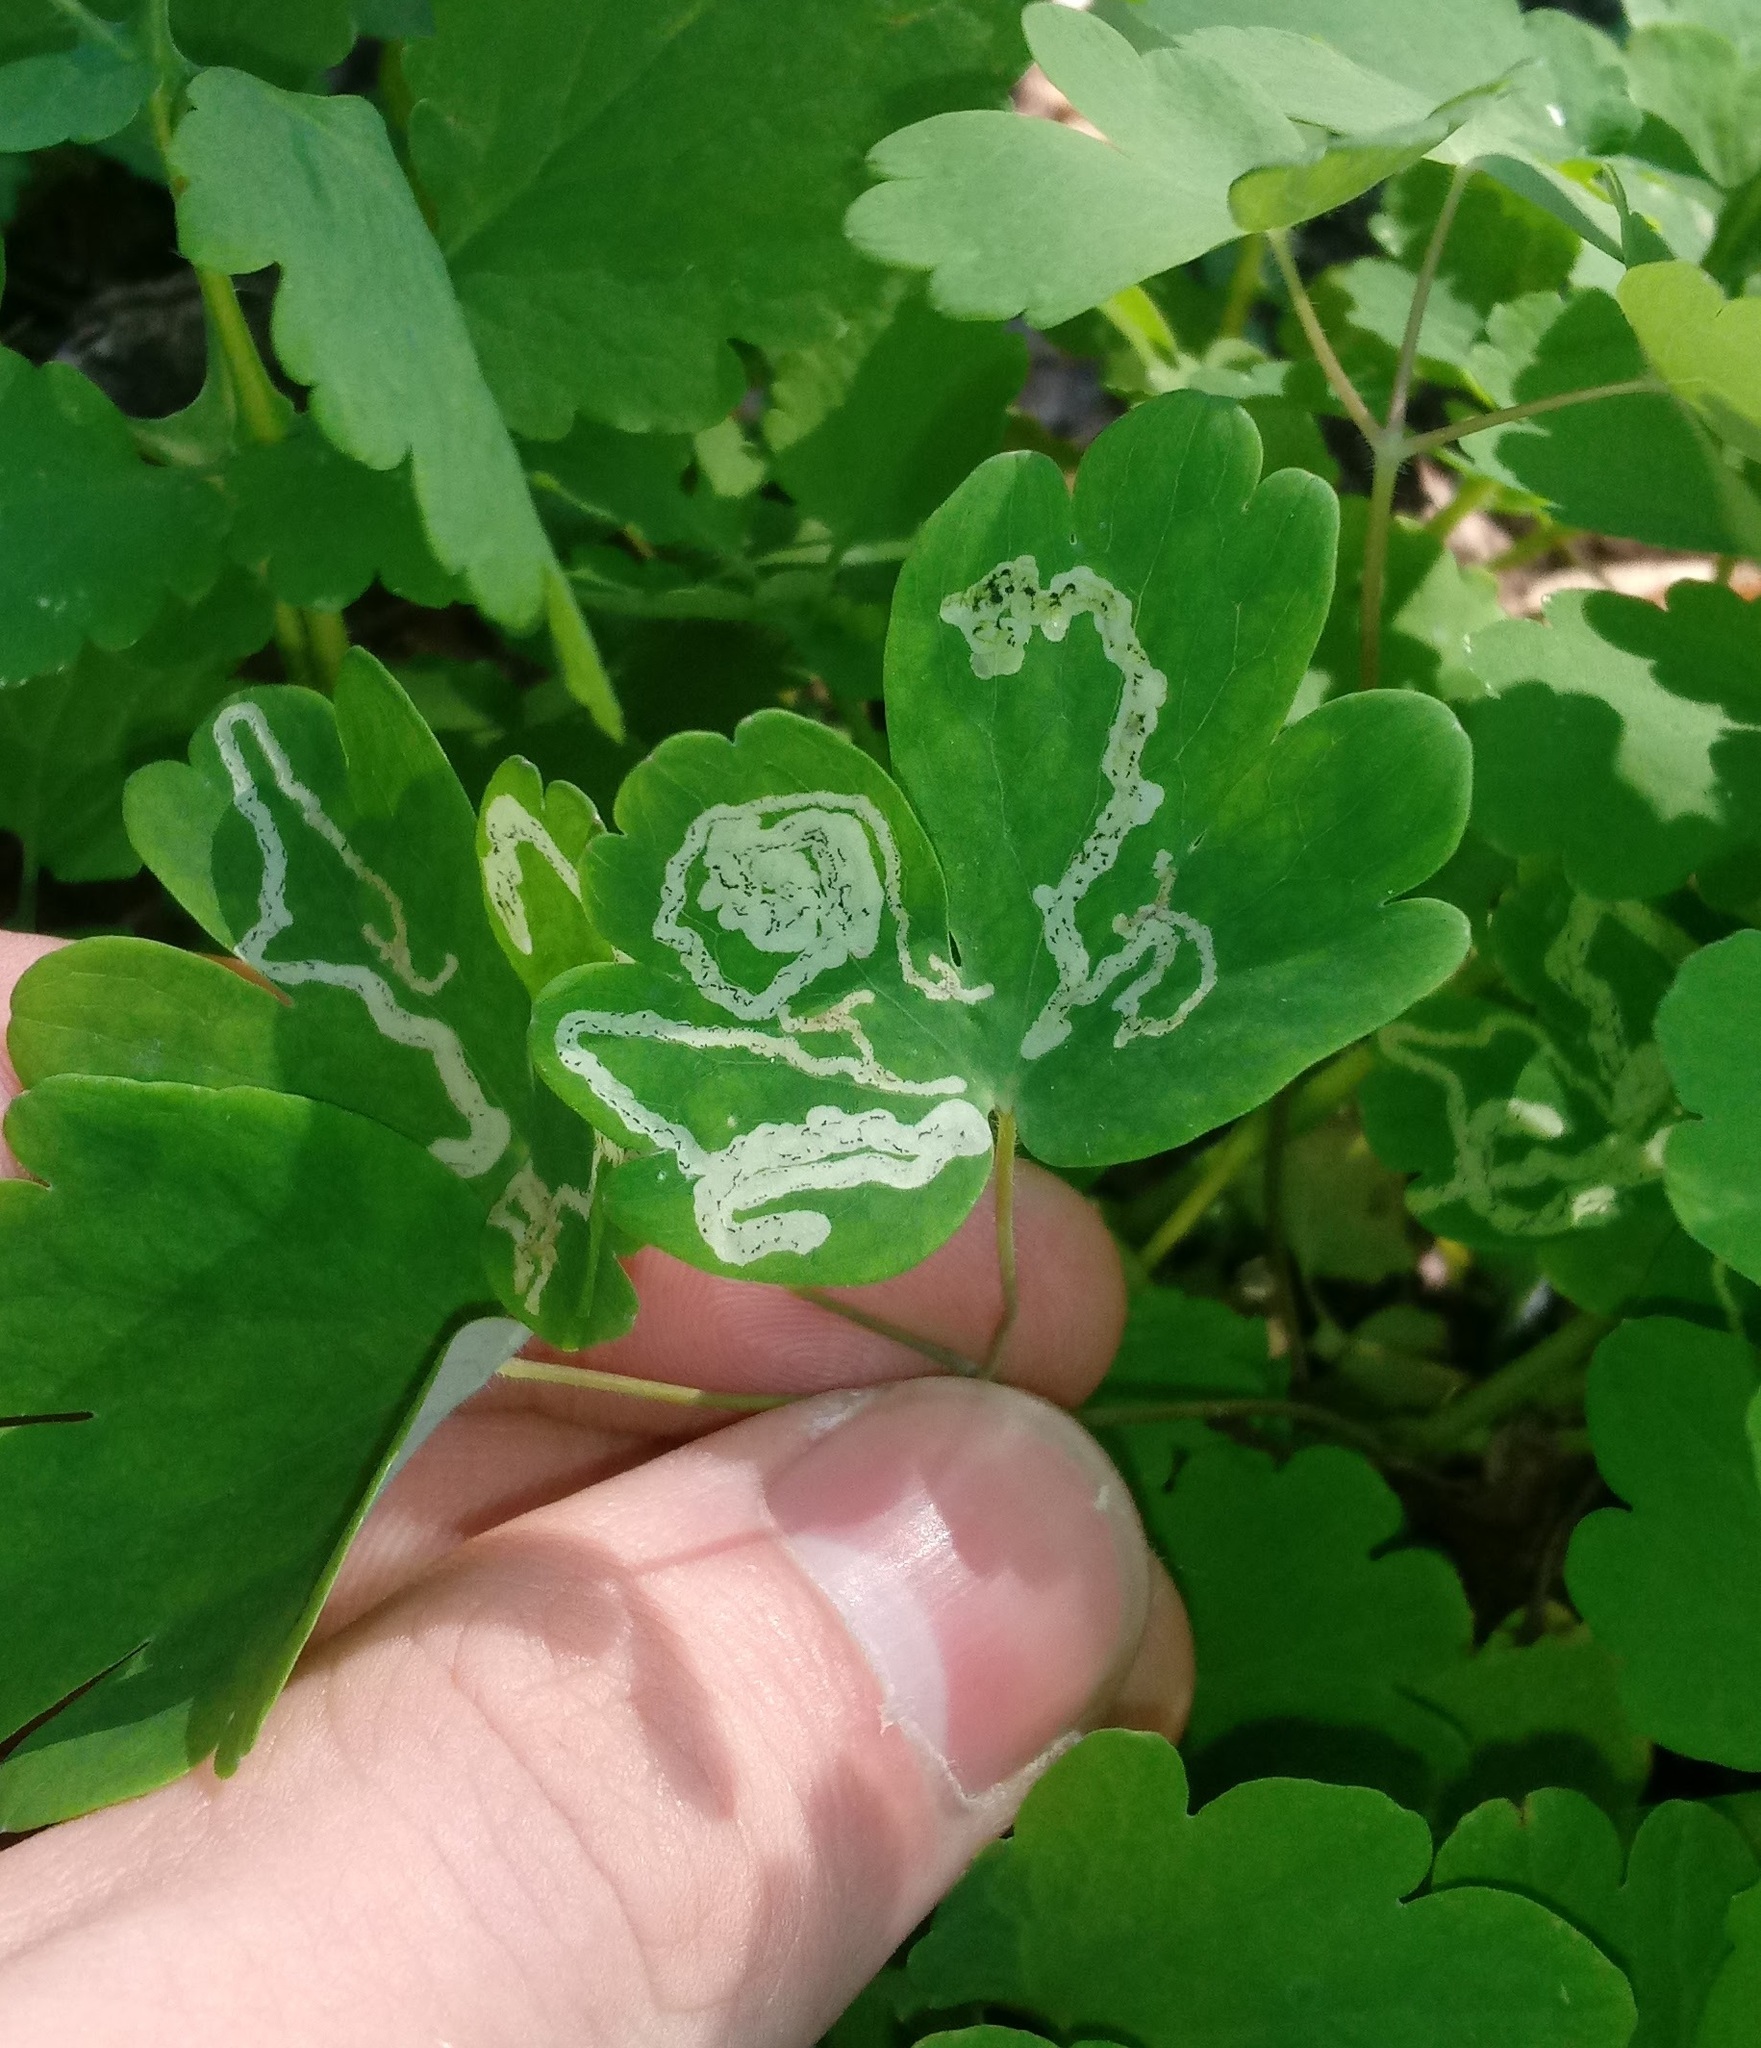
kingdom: Animalia
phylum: Arthropoda
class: Insecta
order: Diptera
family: Agromyzidae
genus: Phytomyza
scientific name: Phytomyza
